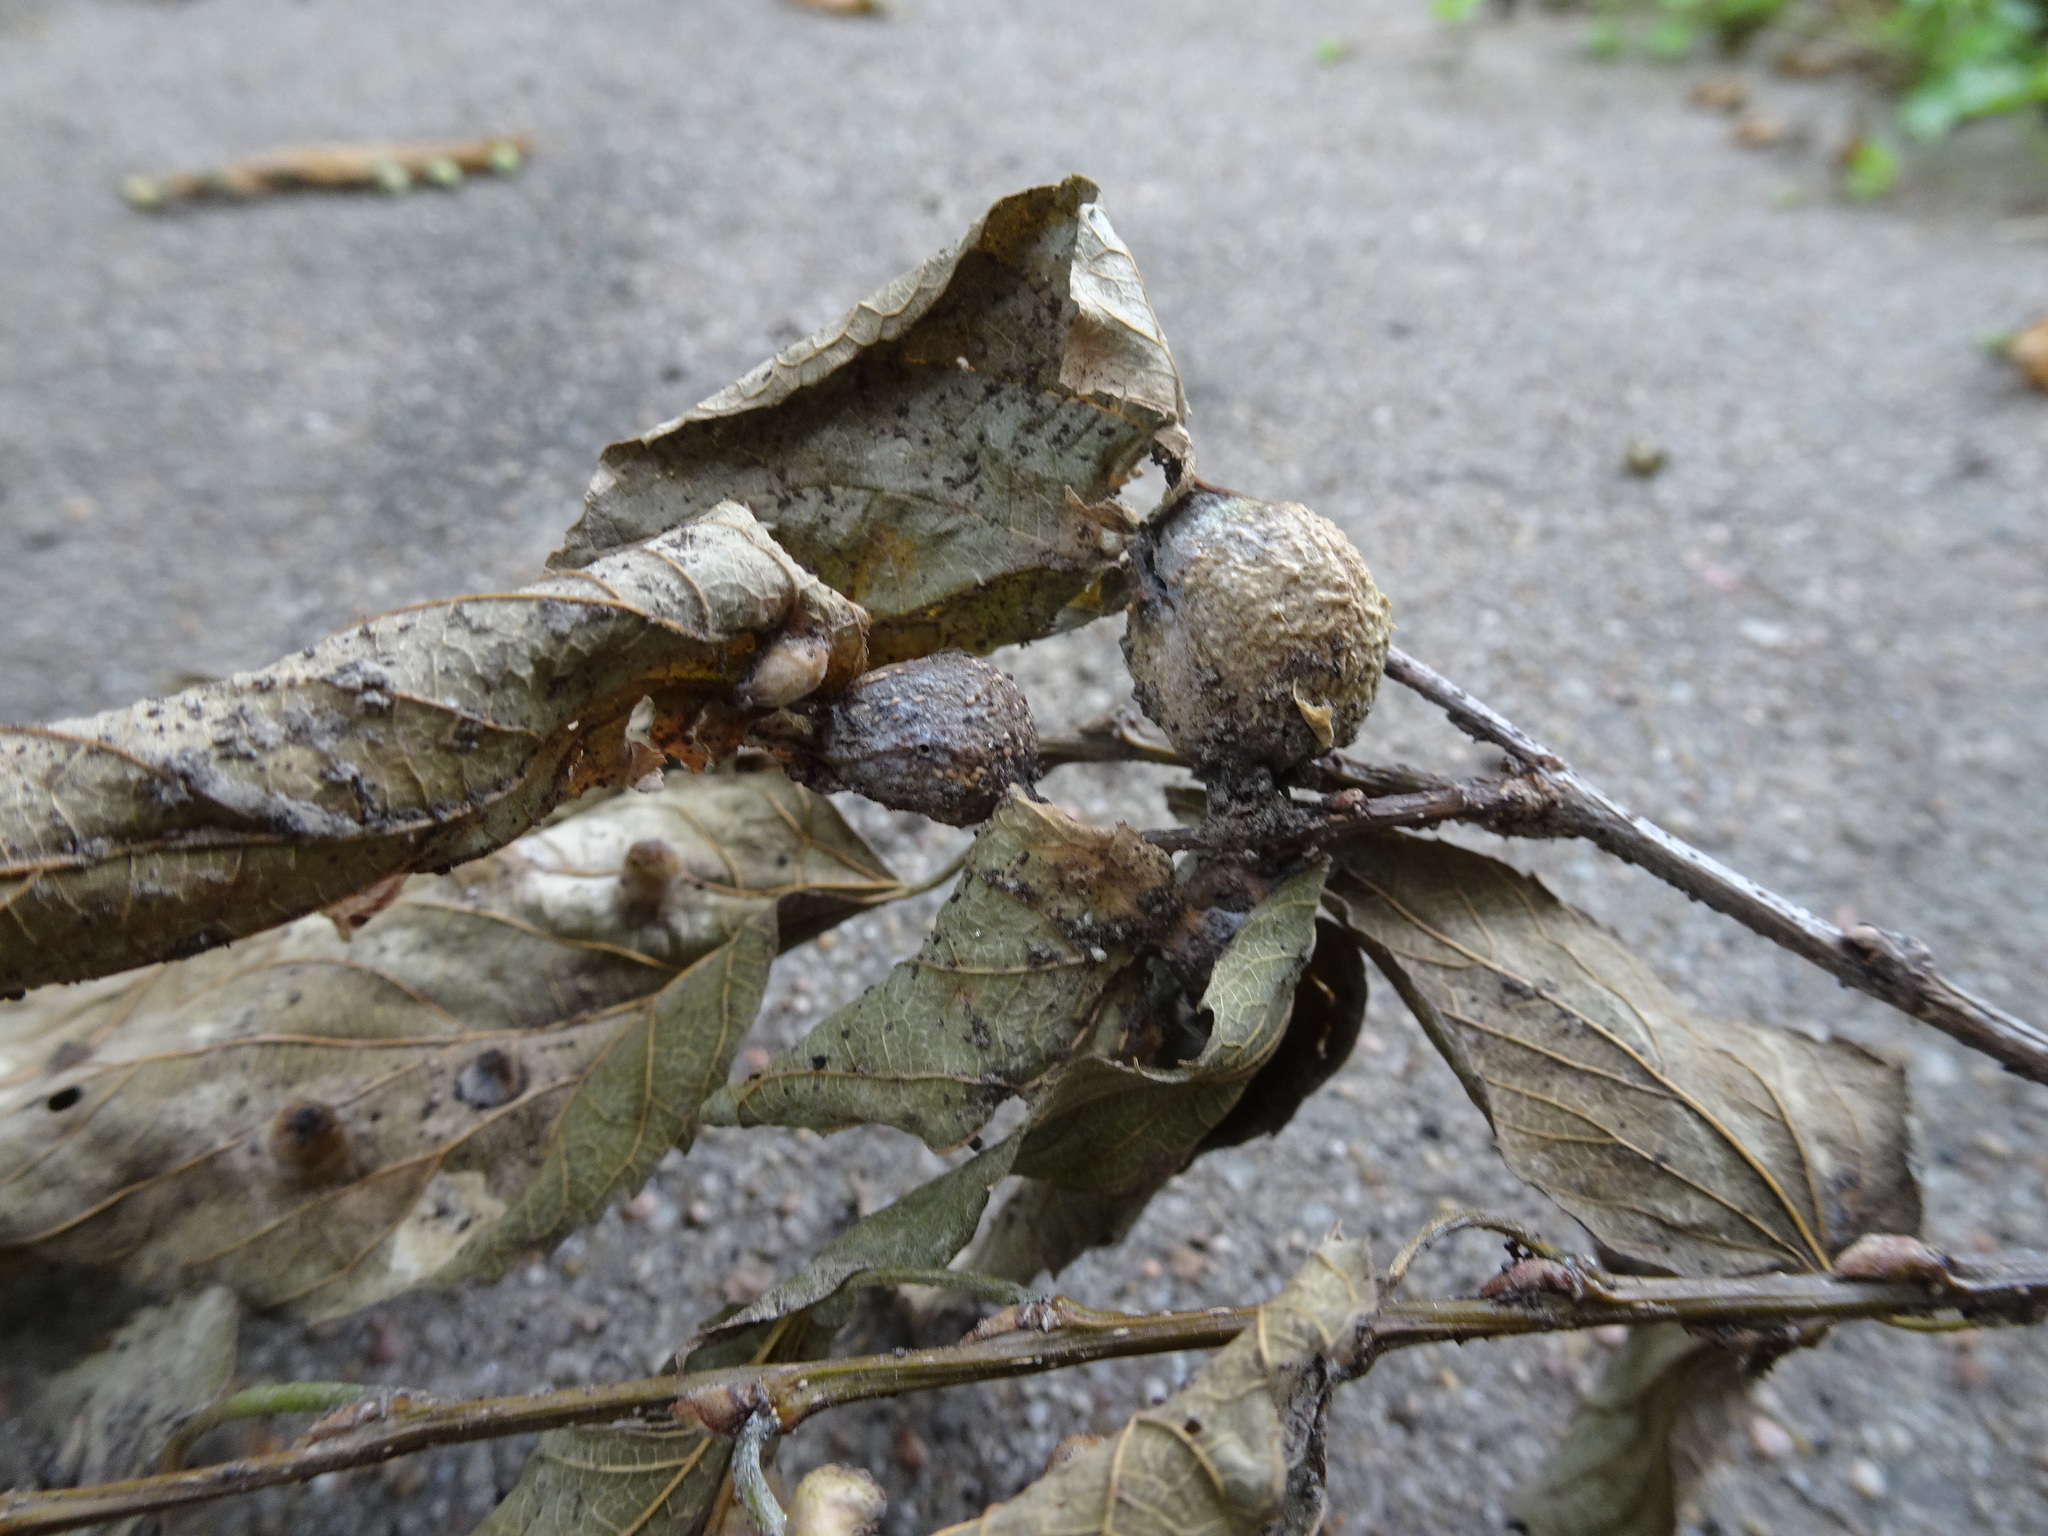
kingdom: Animalia
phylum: Arthropoda
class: Insecta
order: Hemiptera
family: Aphalaridae
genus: Pachypsylla
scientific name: Pachypsylla venusta
